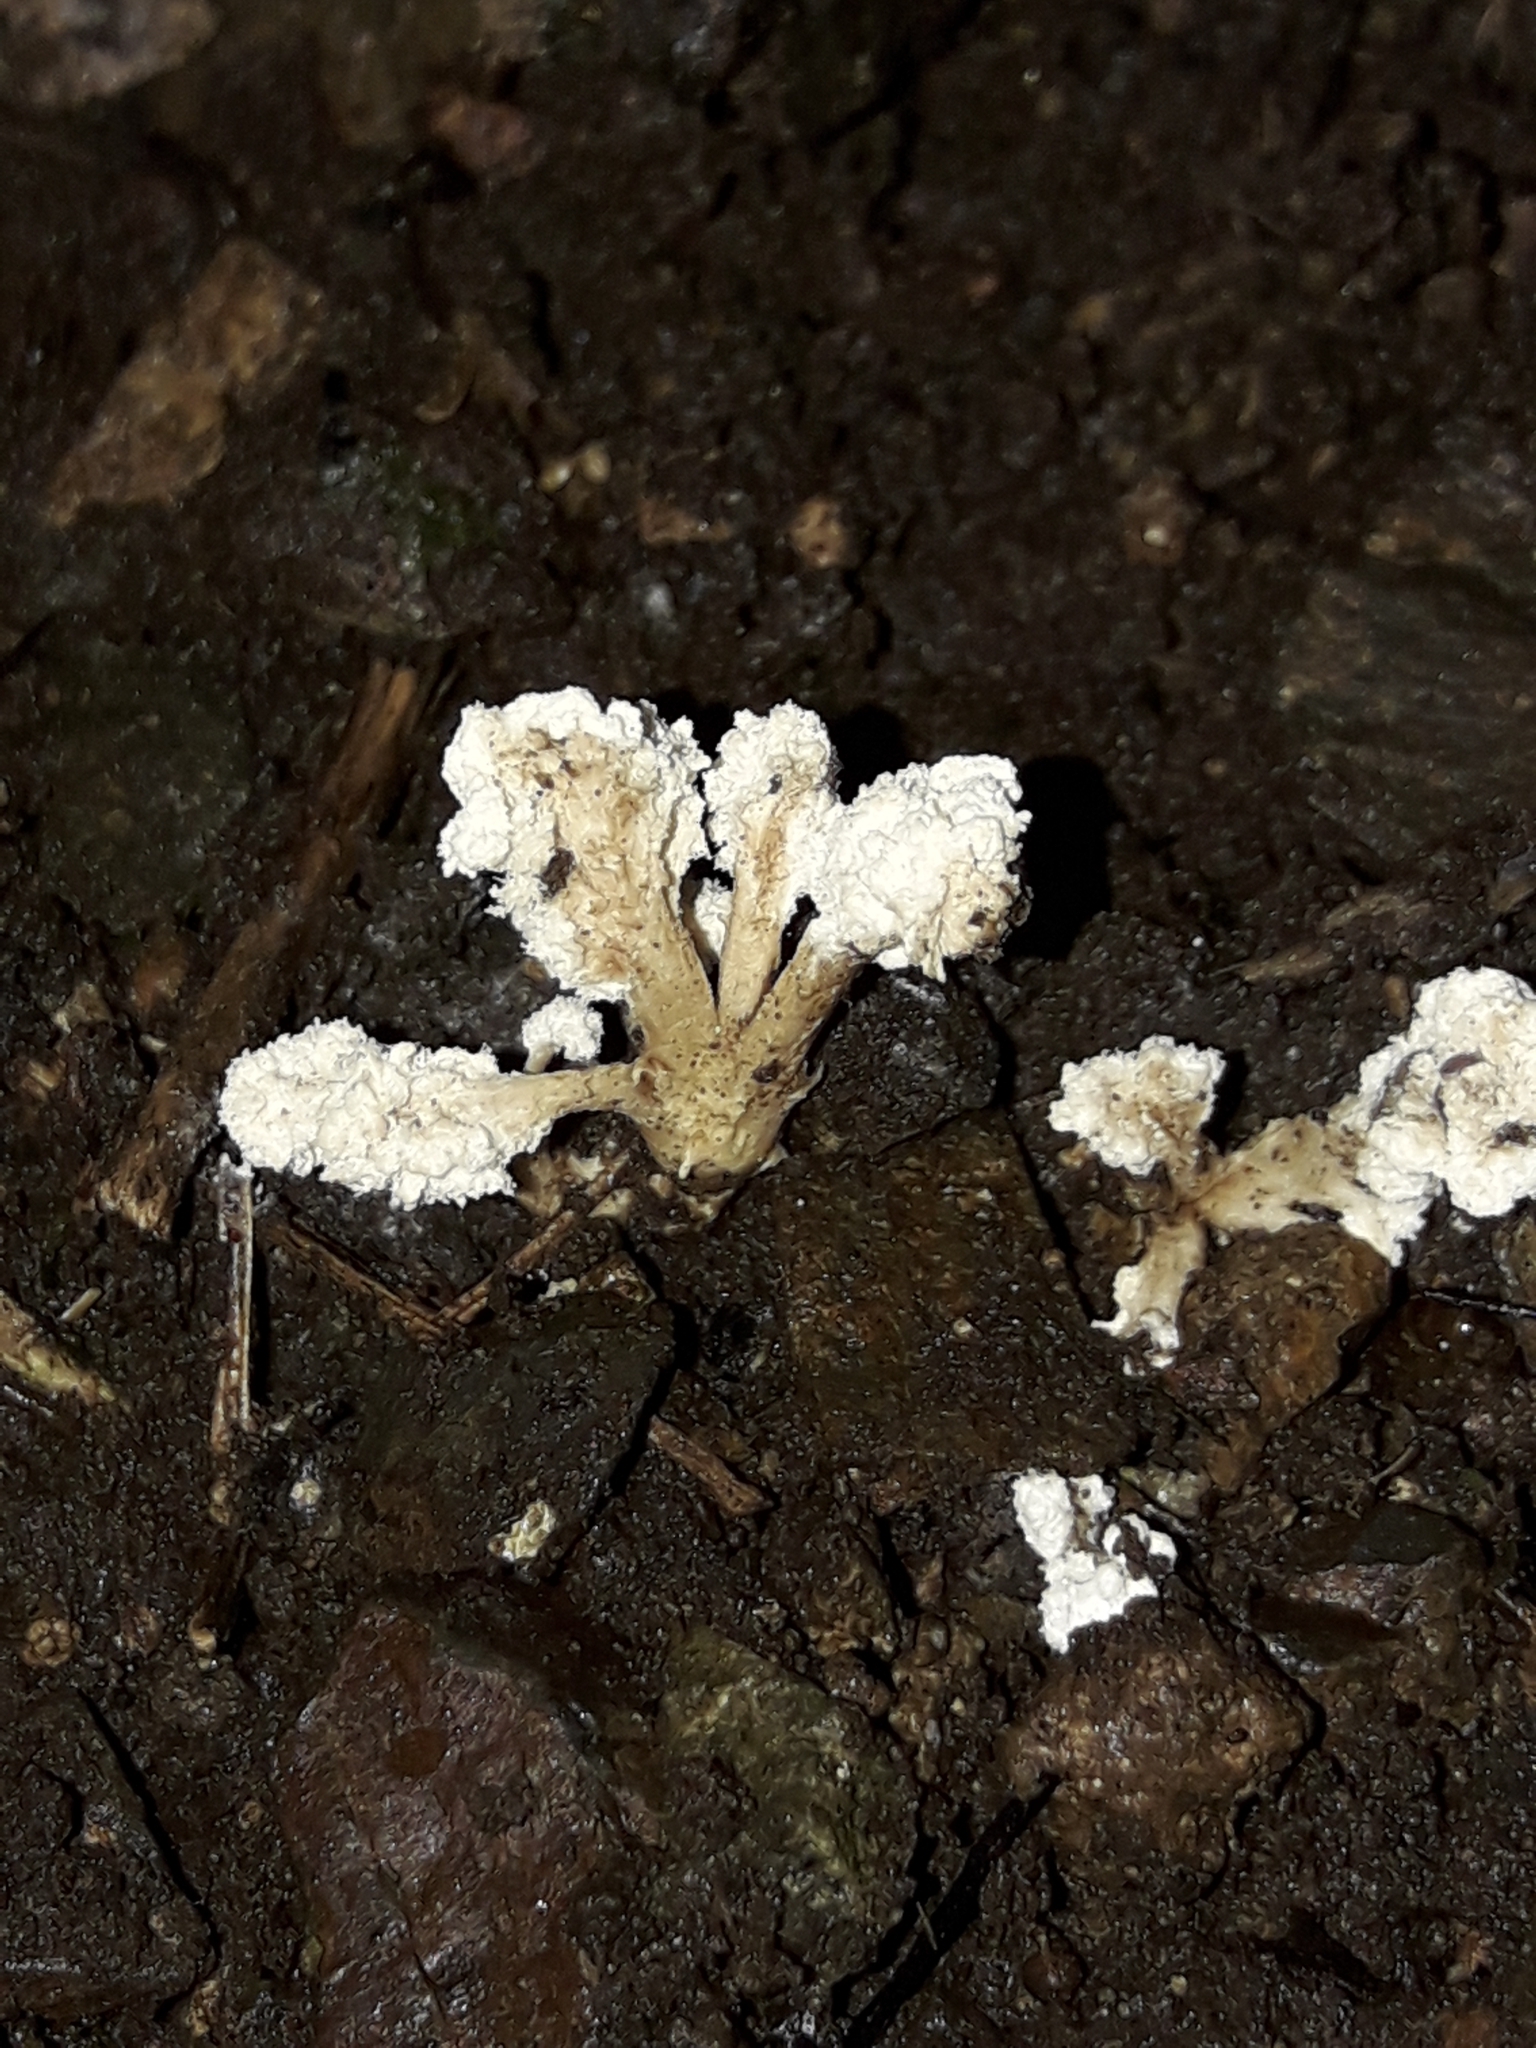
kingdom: Fungi
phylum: Ascomycota
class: Sordariomycetes
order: Hypocreales
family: Cordycipitaceae
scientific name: Cordycipitaceae
